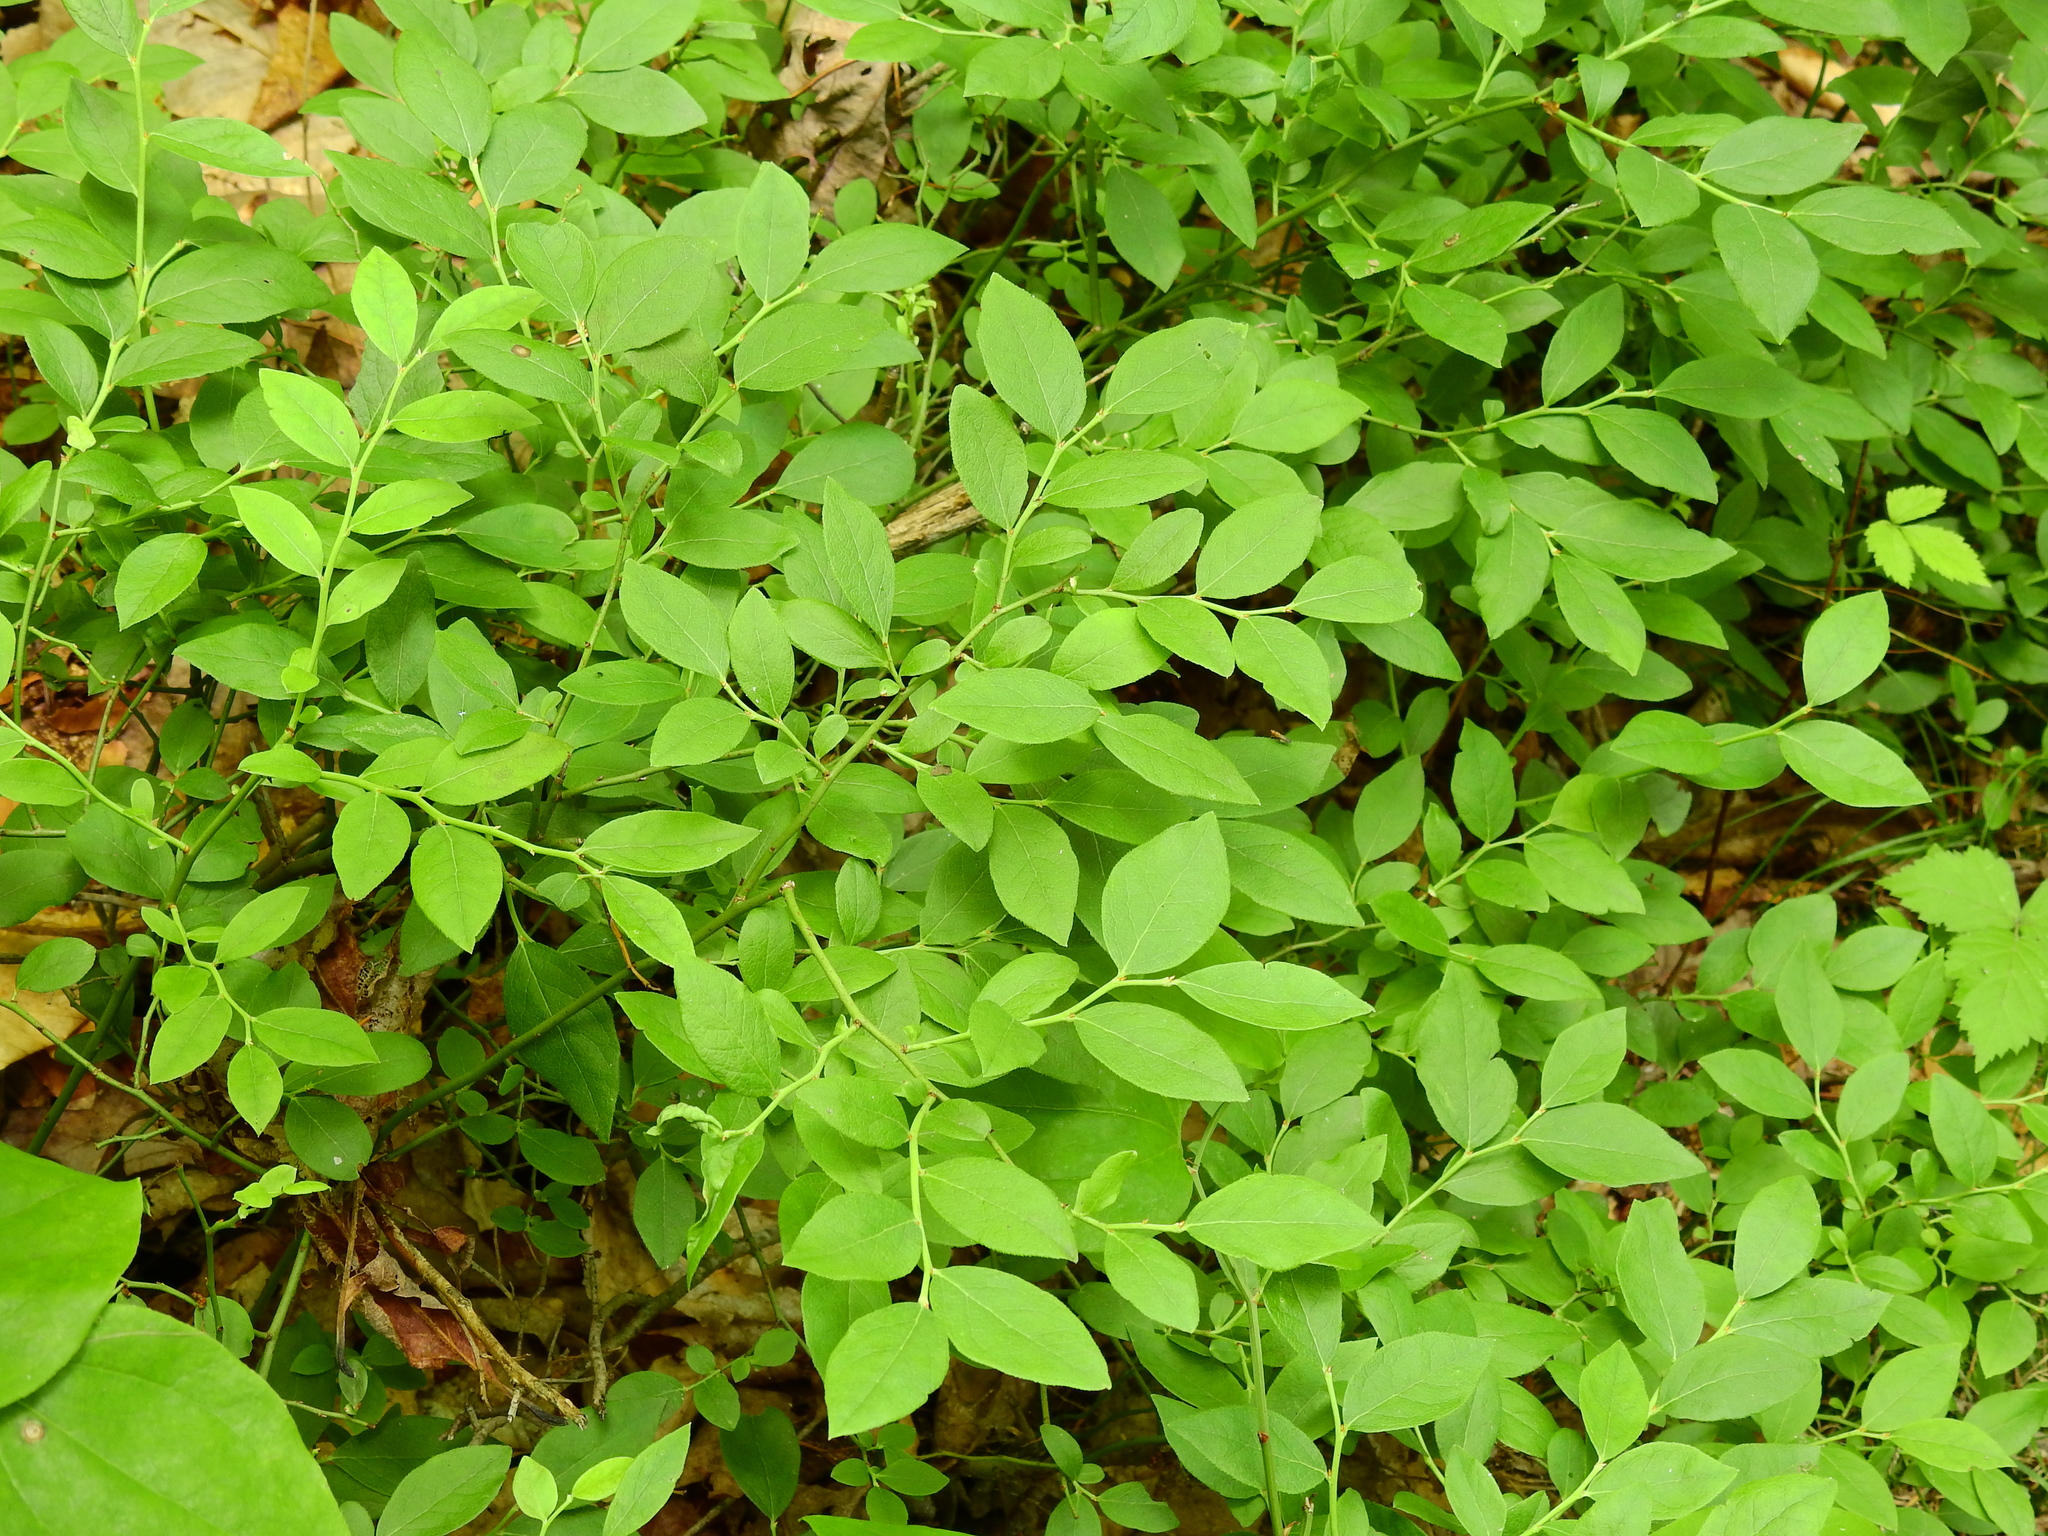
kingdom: Plantae
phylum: Tracheophyta
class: Magnoliopsida
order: Ericales
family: Ericaceae
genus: Vaccinium
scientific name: Vaccinium pallidum
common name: Blue ridge blueberry
